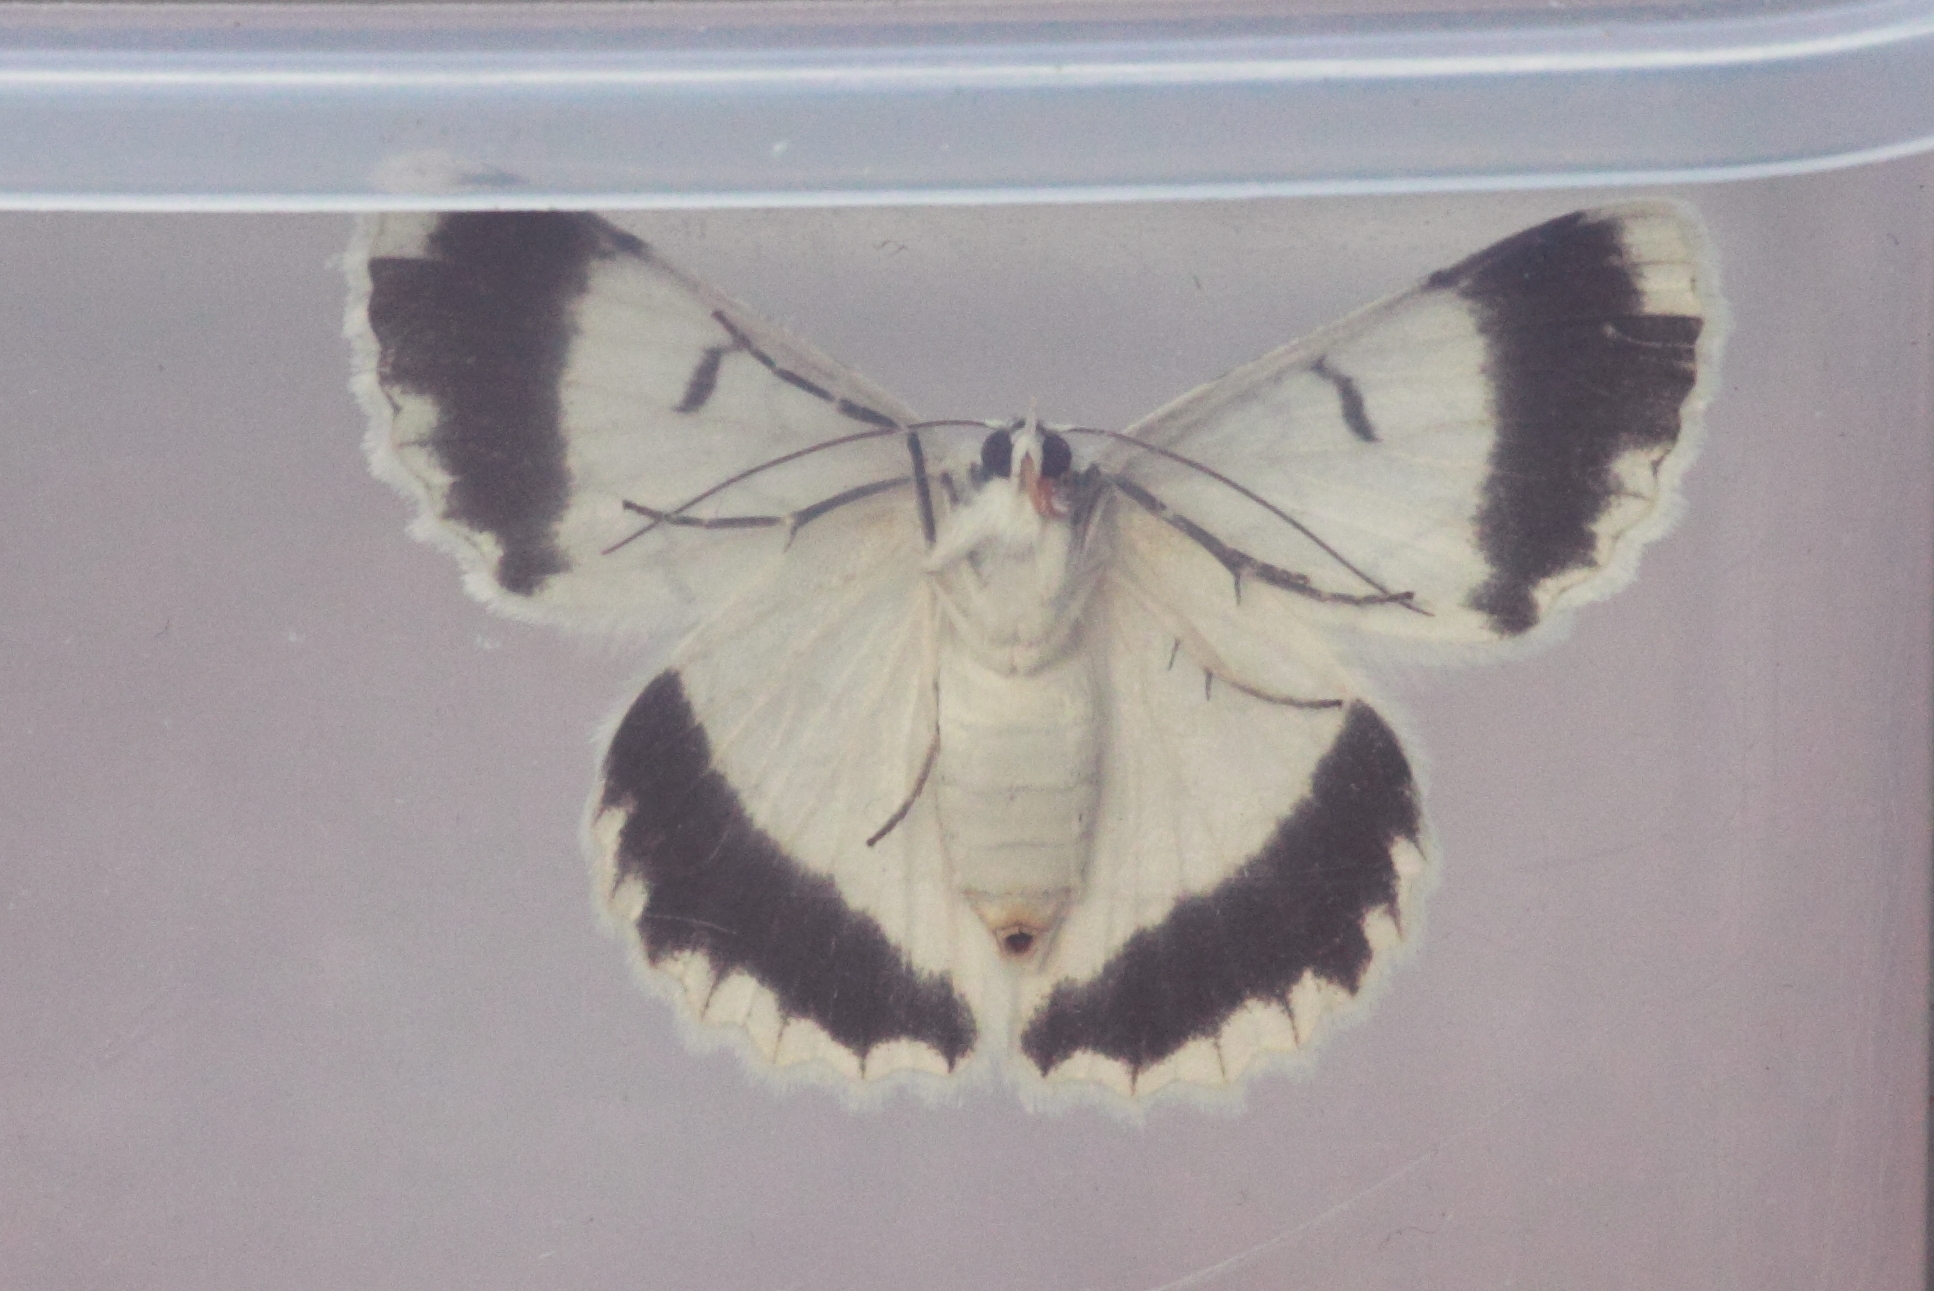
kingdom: Animalia
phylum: Arthropoda
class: Insecta
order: Lepidoptera
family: Geometridae
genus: Pingasa
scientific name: Pingasa chlora
